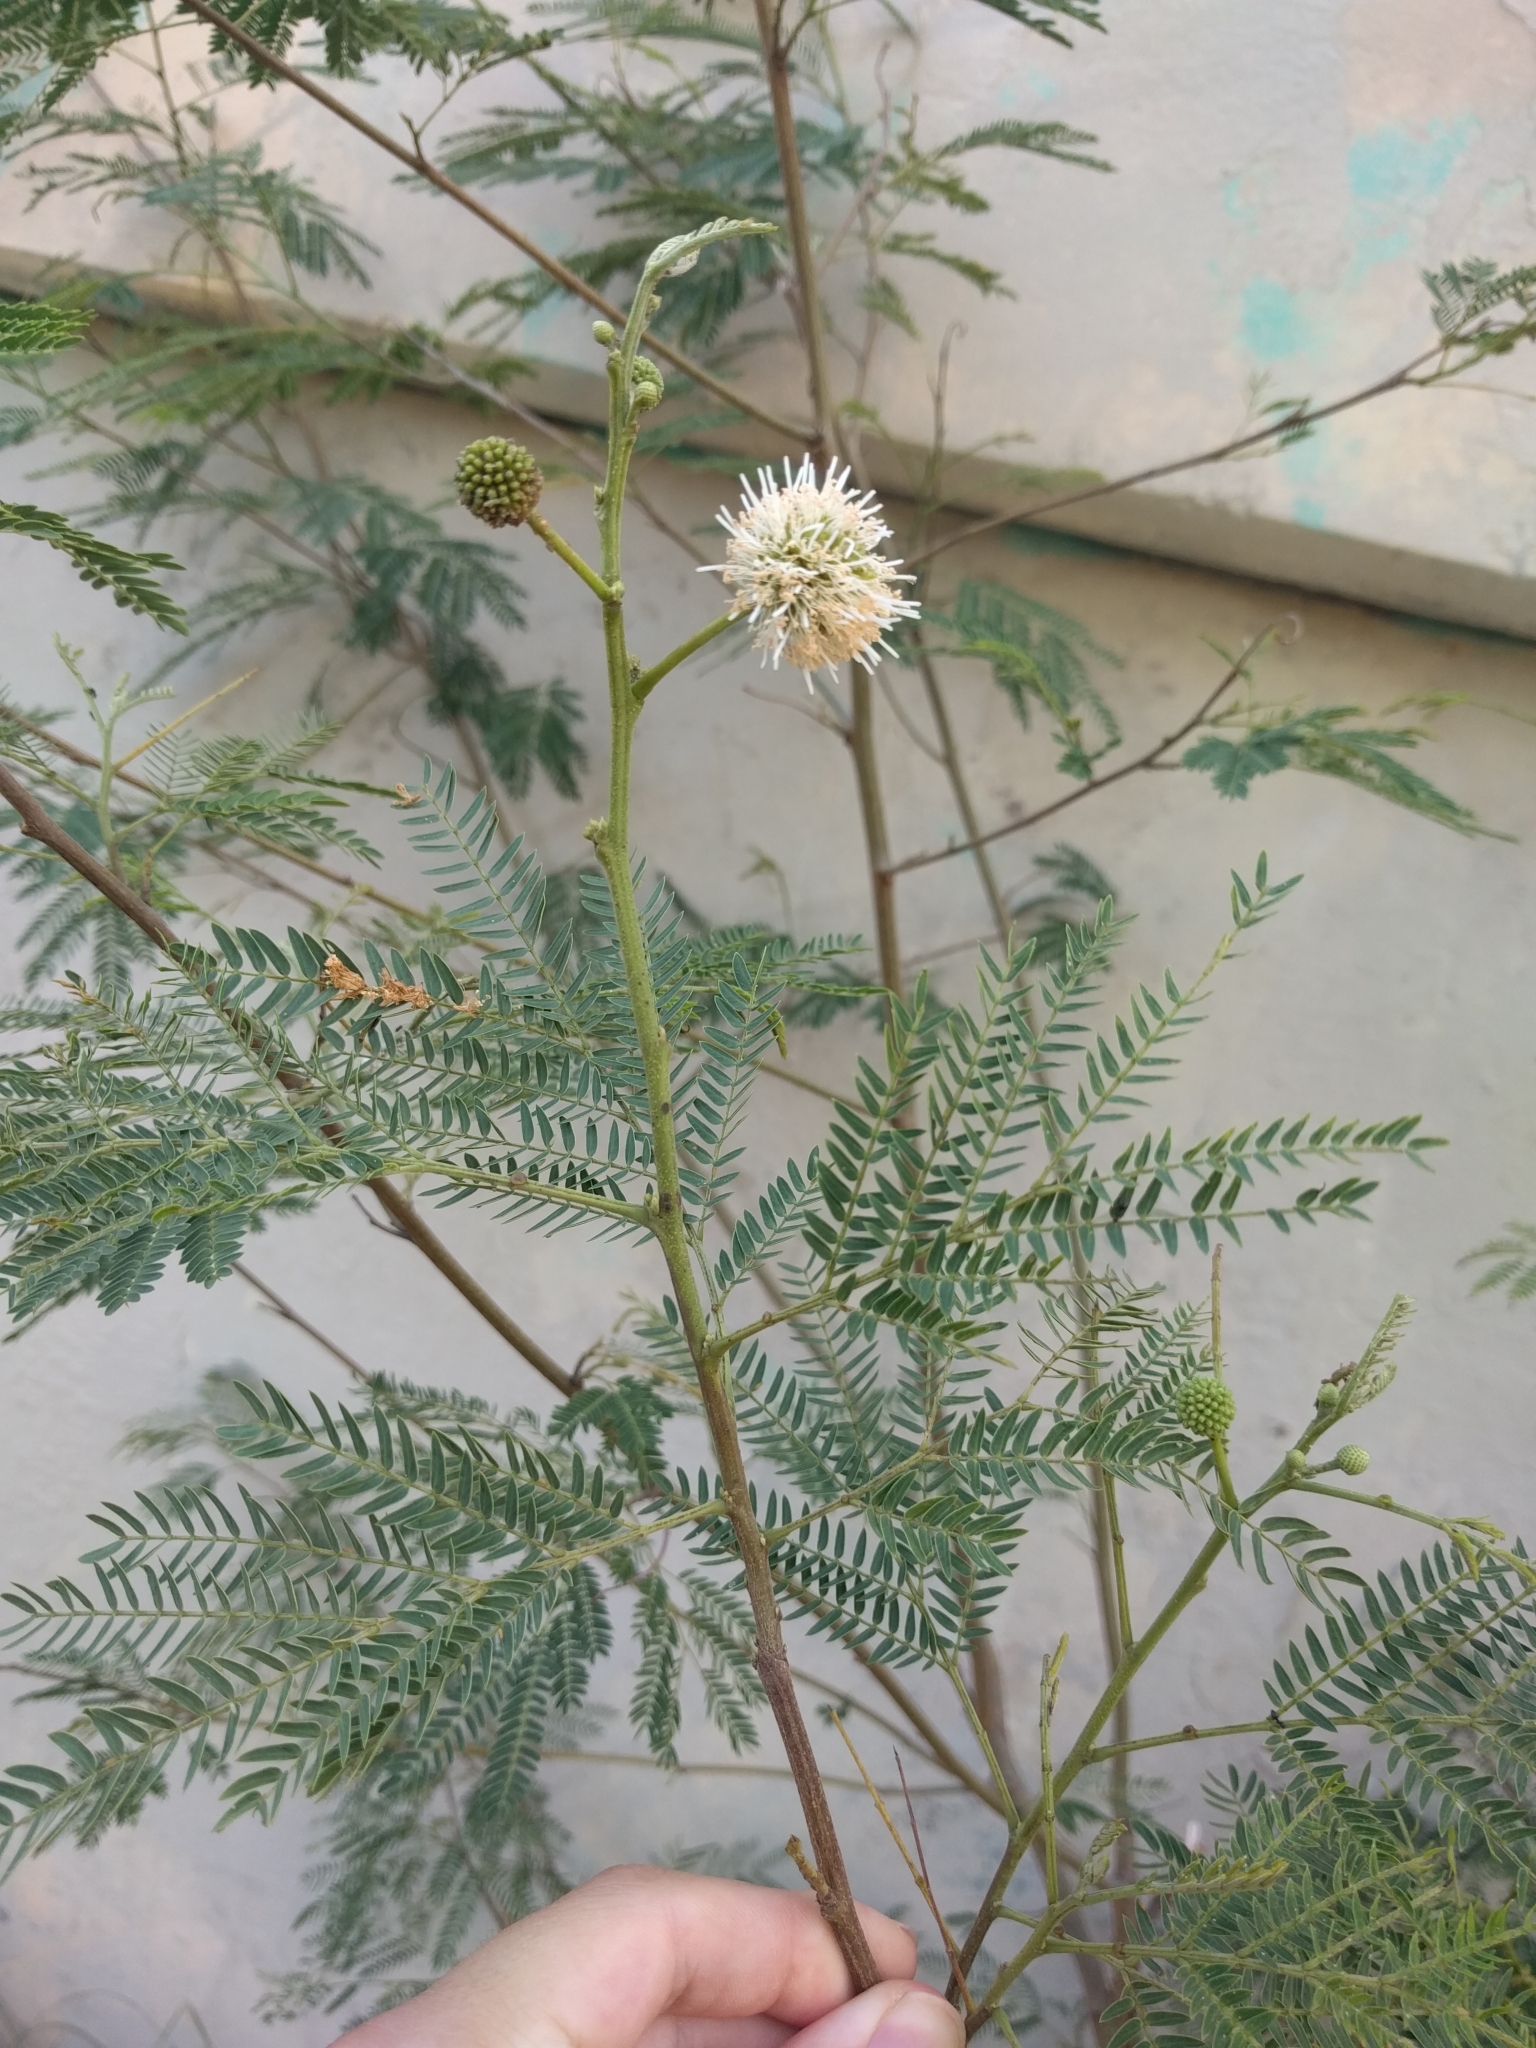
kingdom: Plantae
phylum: Tracheophyta
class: Magnoliopsida
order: Fabales
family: Fabaceae
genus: Leucaena
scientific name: Leucaena leucocephala
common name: White leadtree
